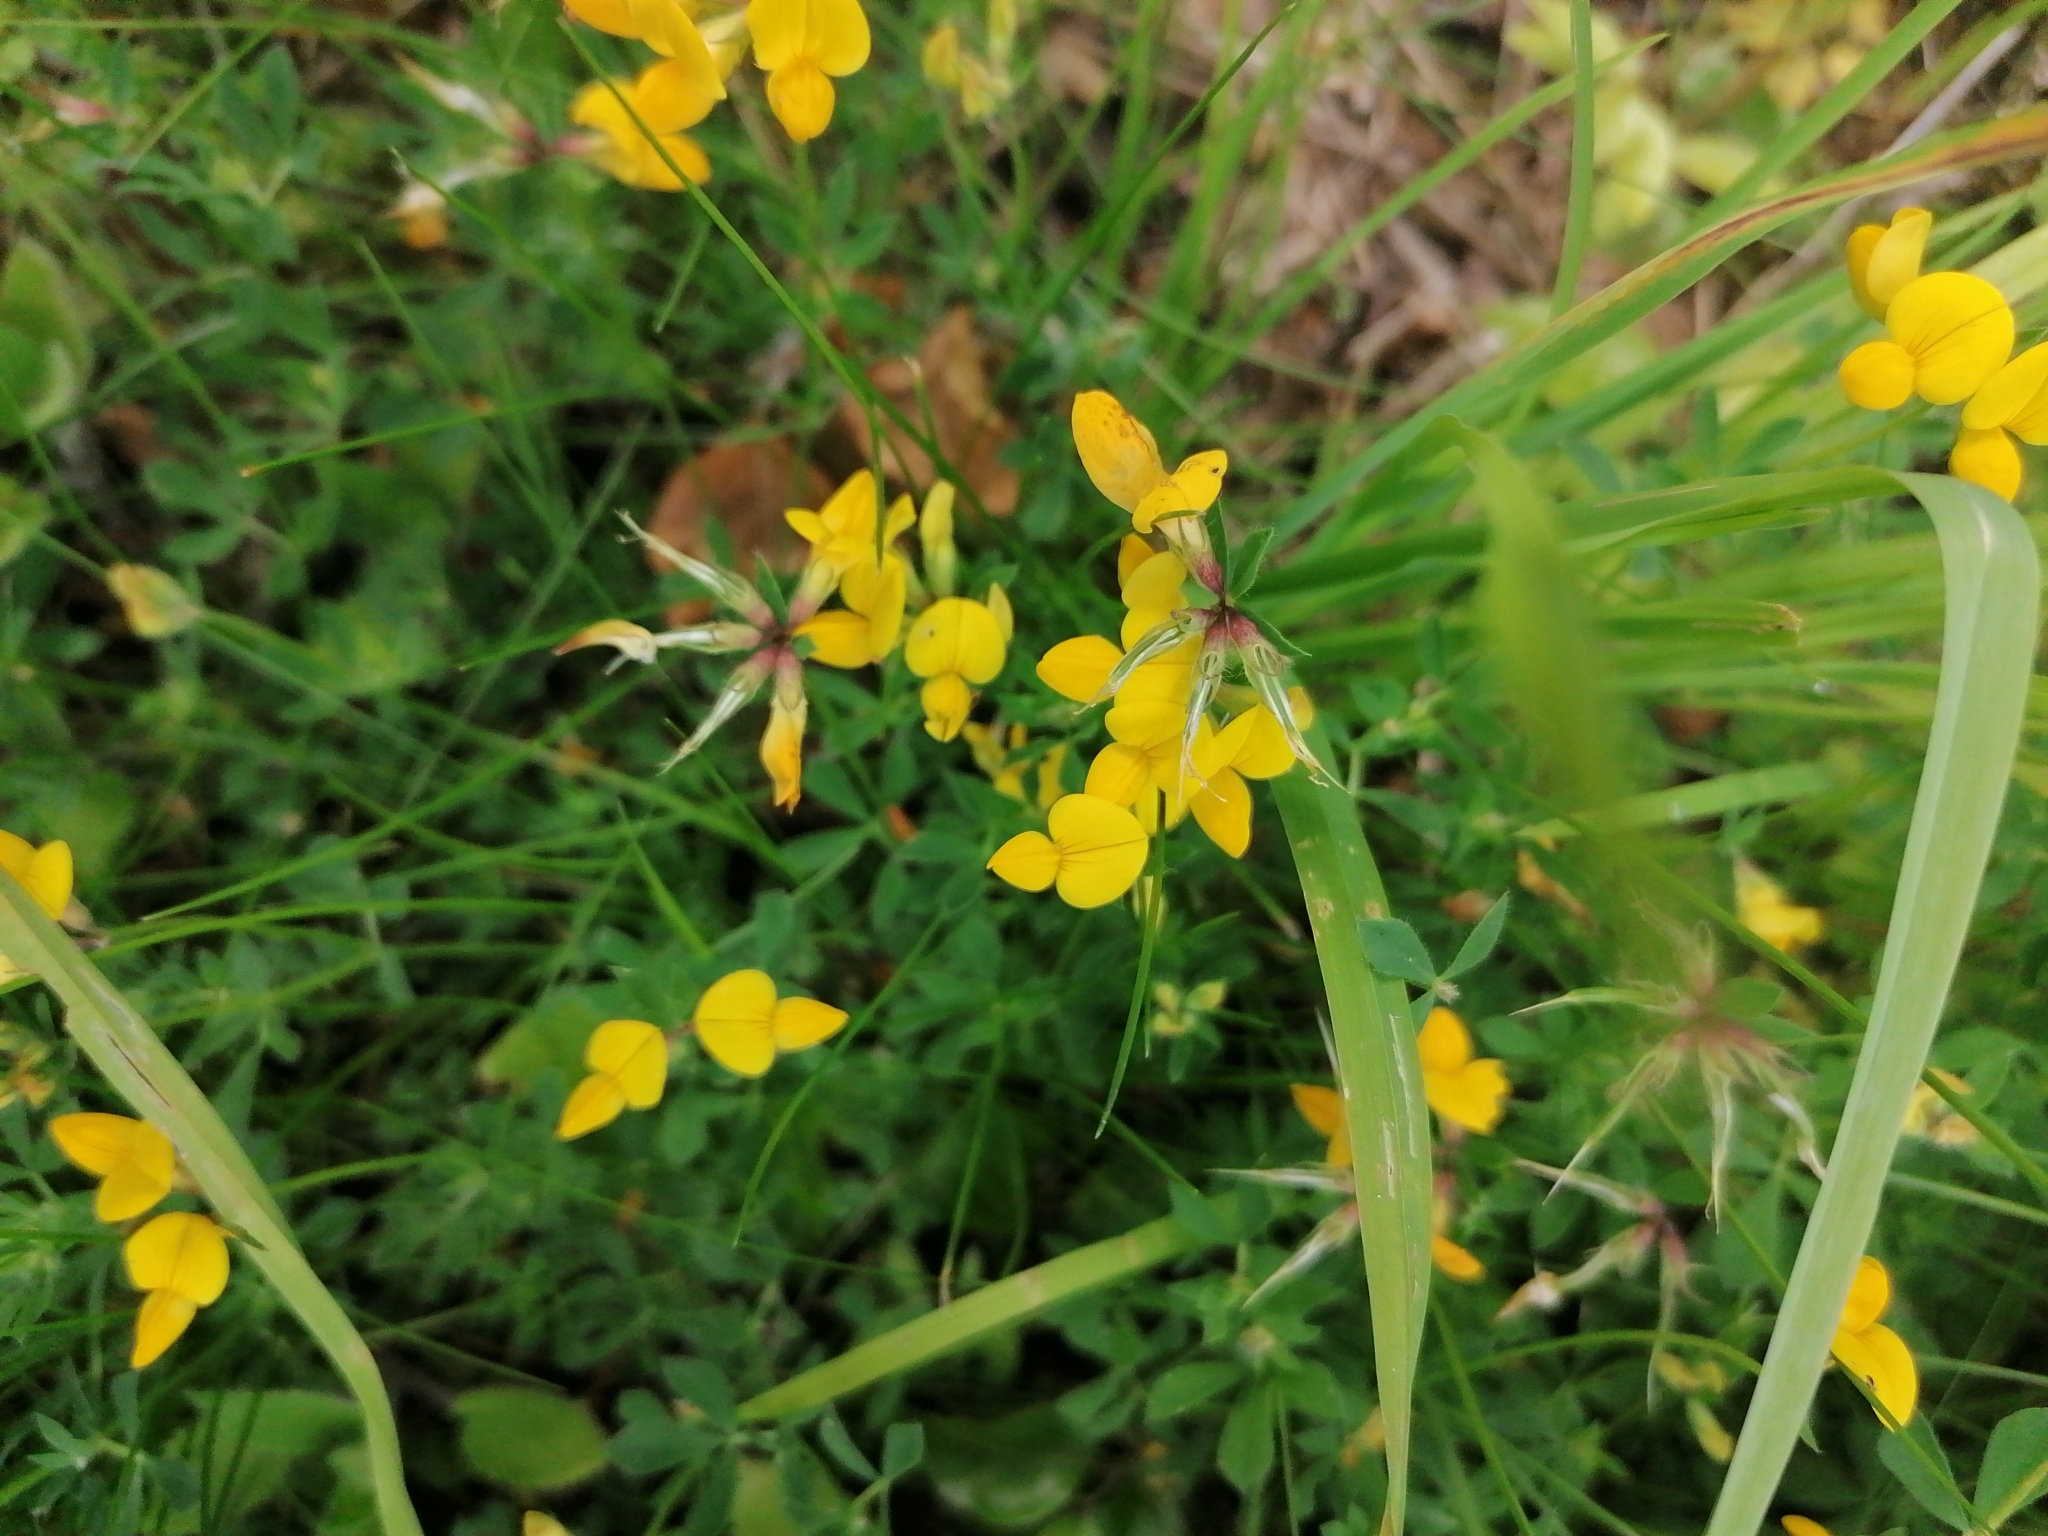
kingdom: Plantae
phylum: Tracheophyta
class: Magnoliopsida
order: Fabales
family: Fabaceae
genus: Lotus
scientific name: Lotus corniculatus
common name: Common bird's-foot-trefoil
